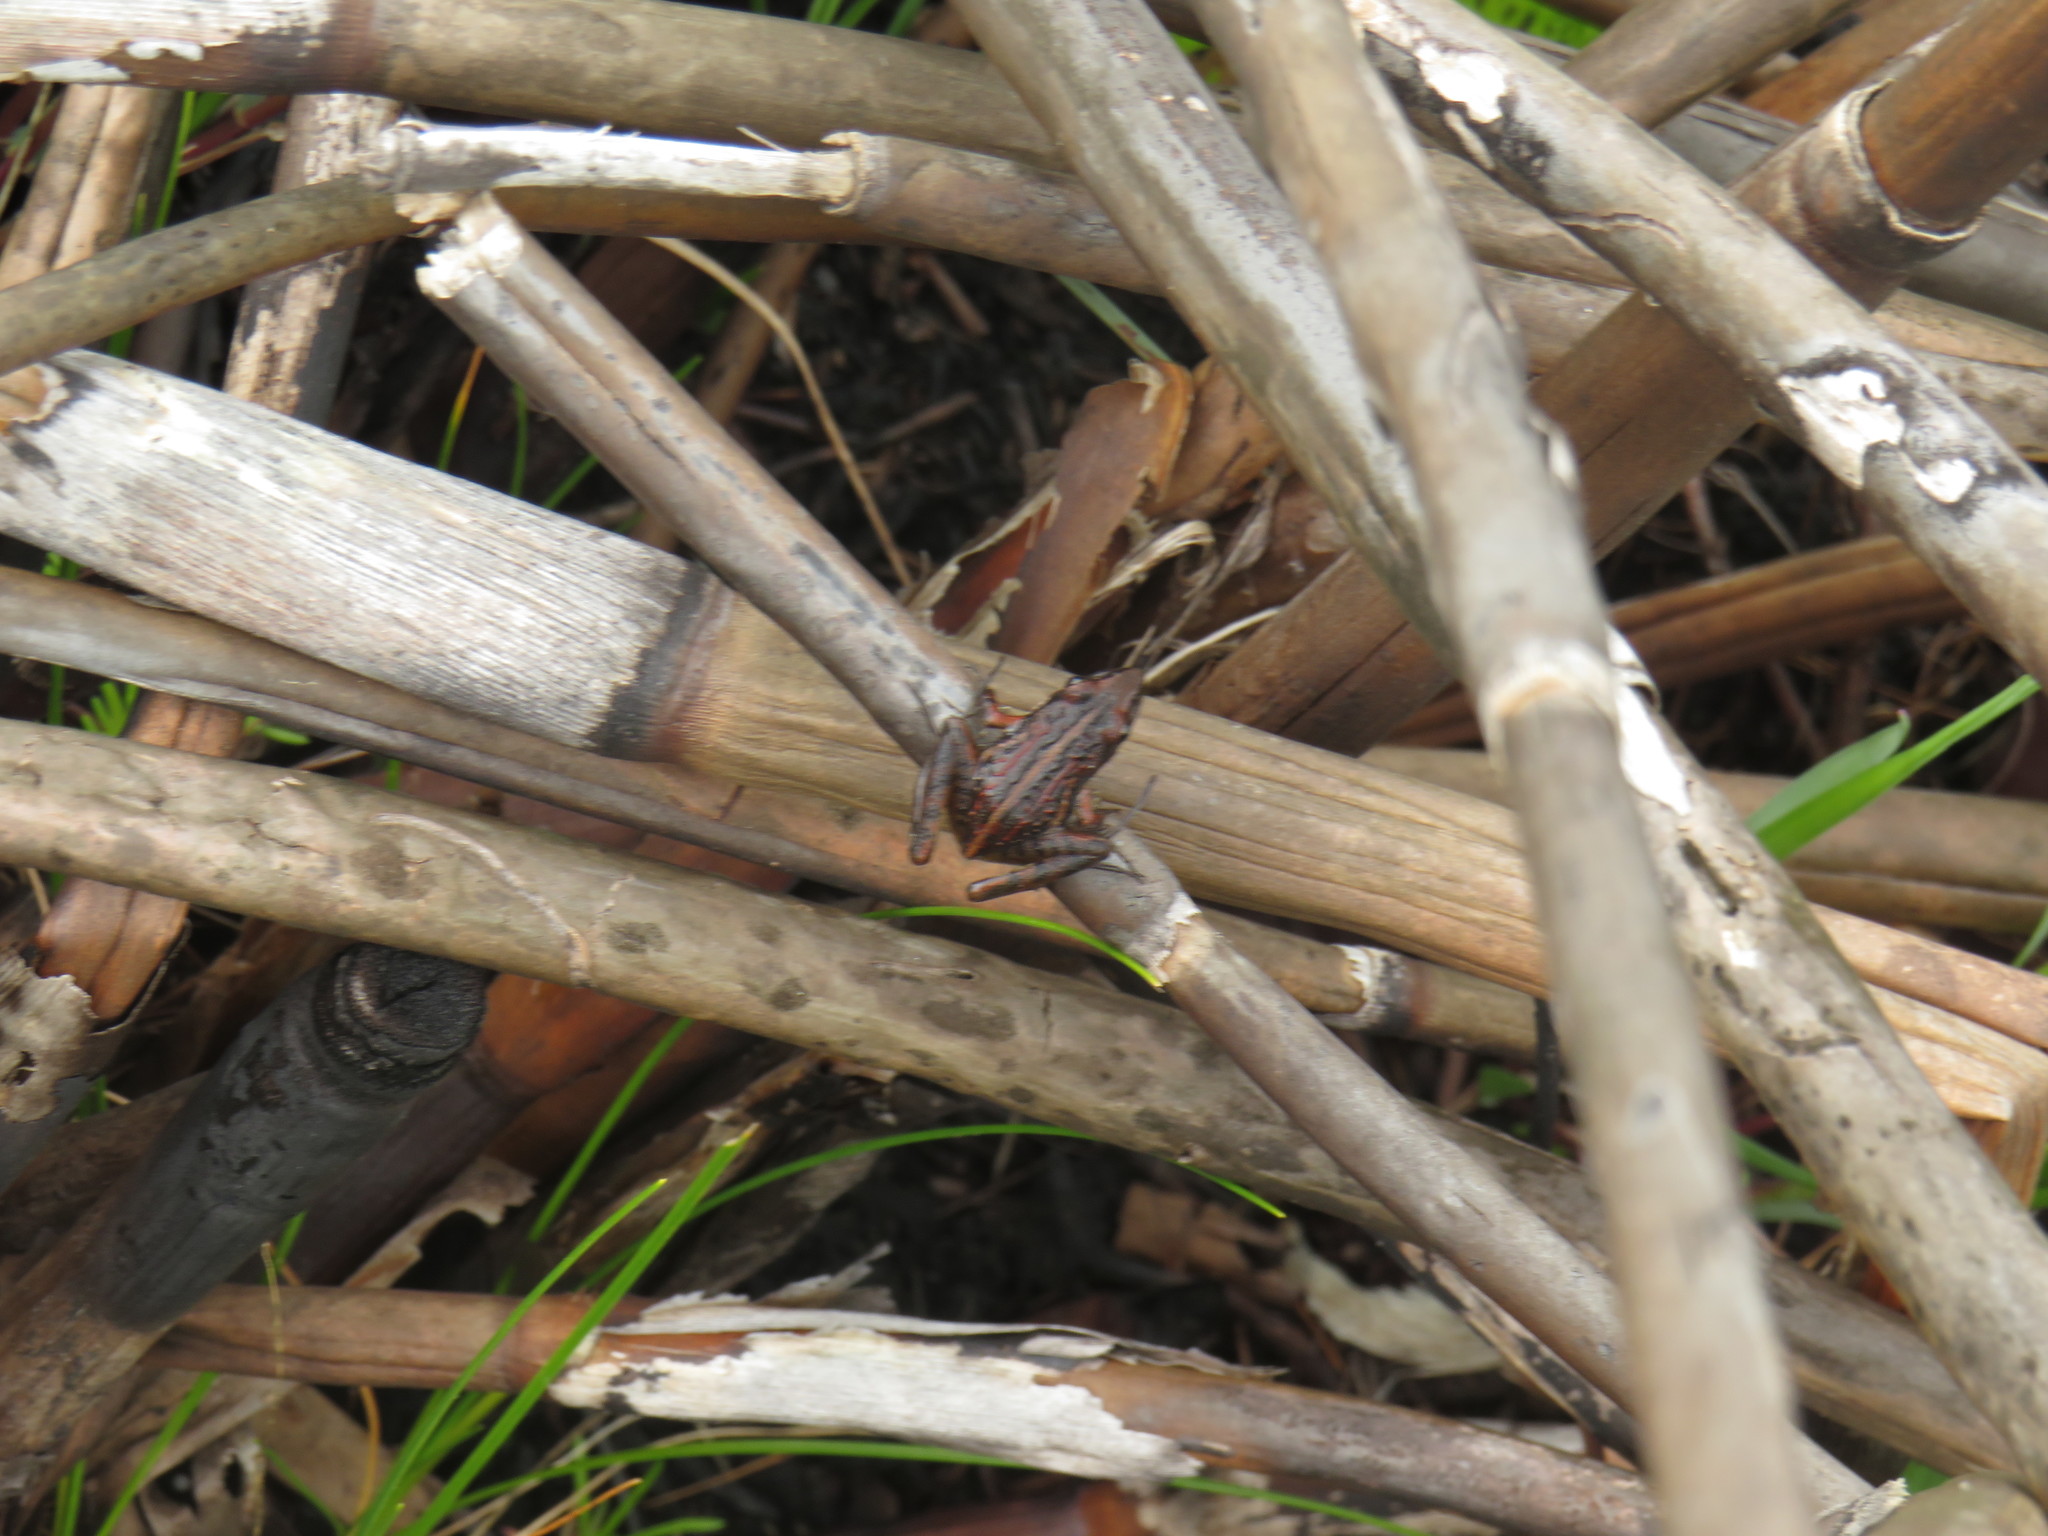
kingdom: Animalia
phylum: Chordata
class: Amphibia
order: Anura
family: Pyxicephalidae
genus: Strongylopus
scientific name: Strongylopus bonaespei
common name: Banded stream frog
